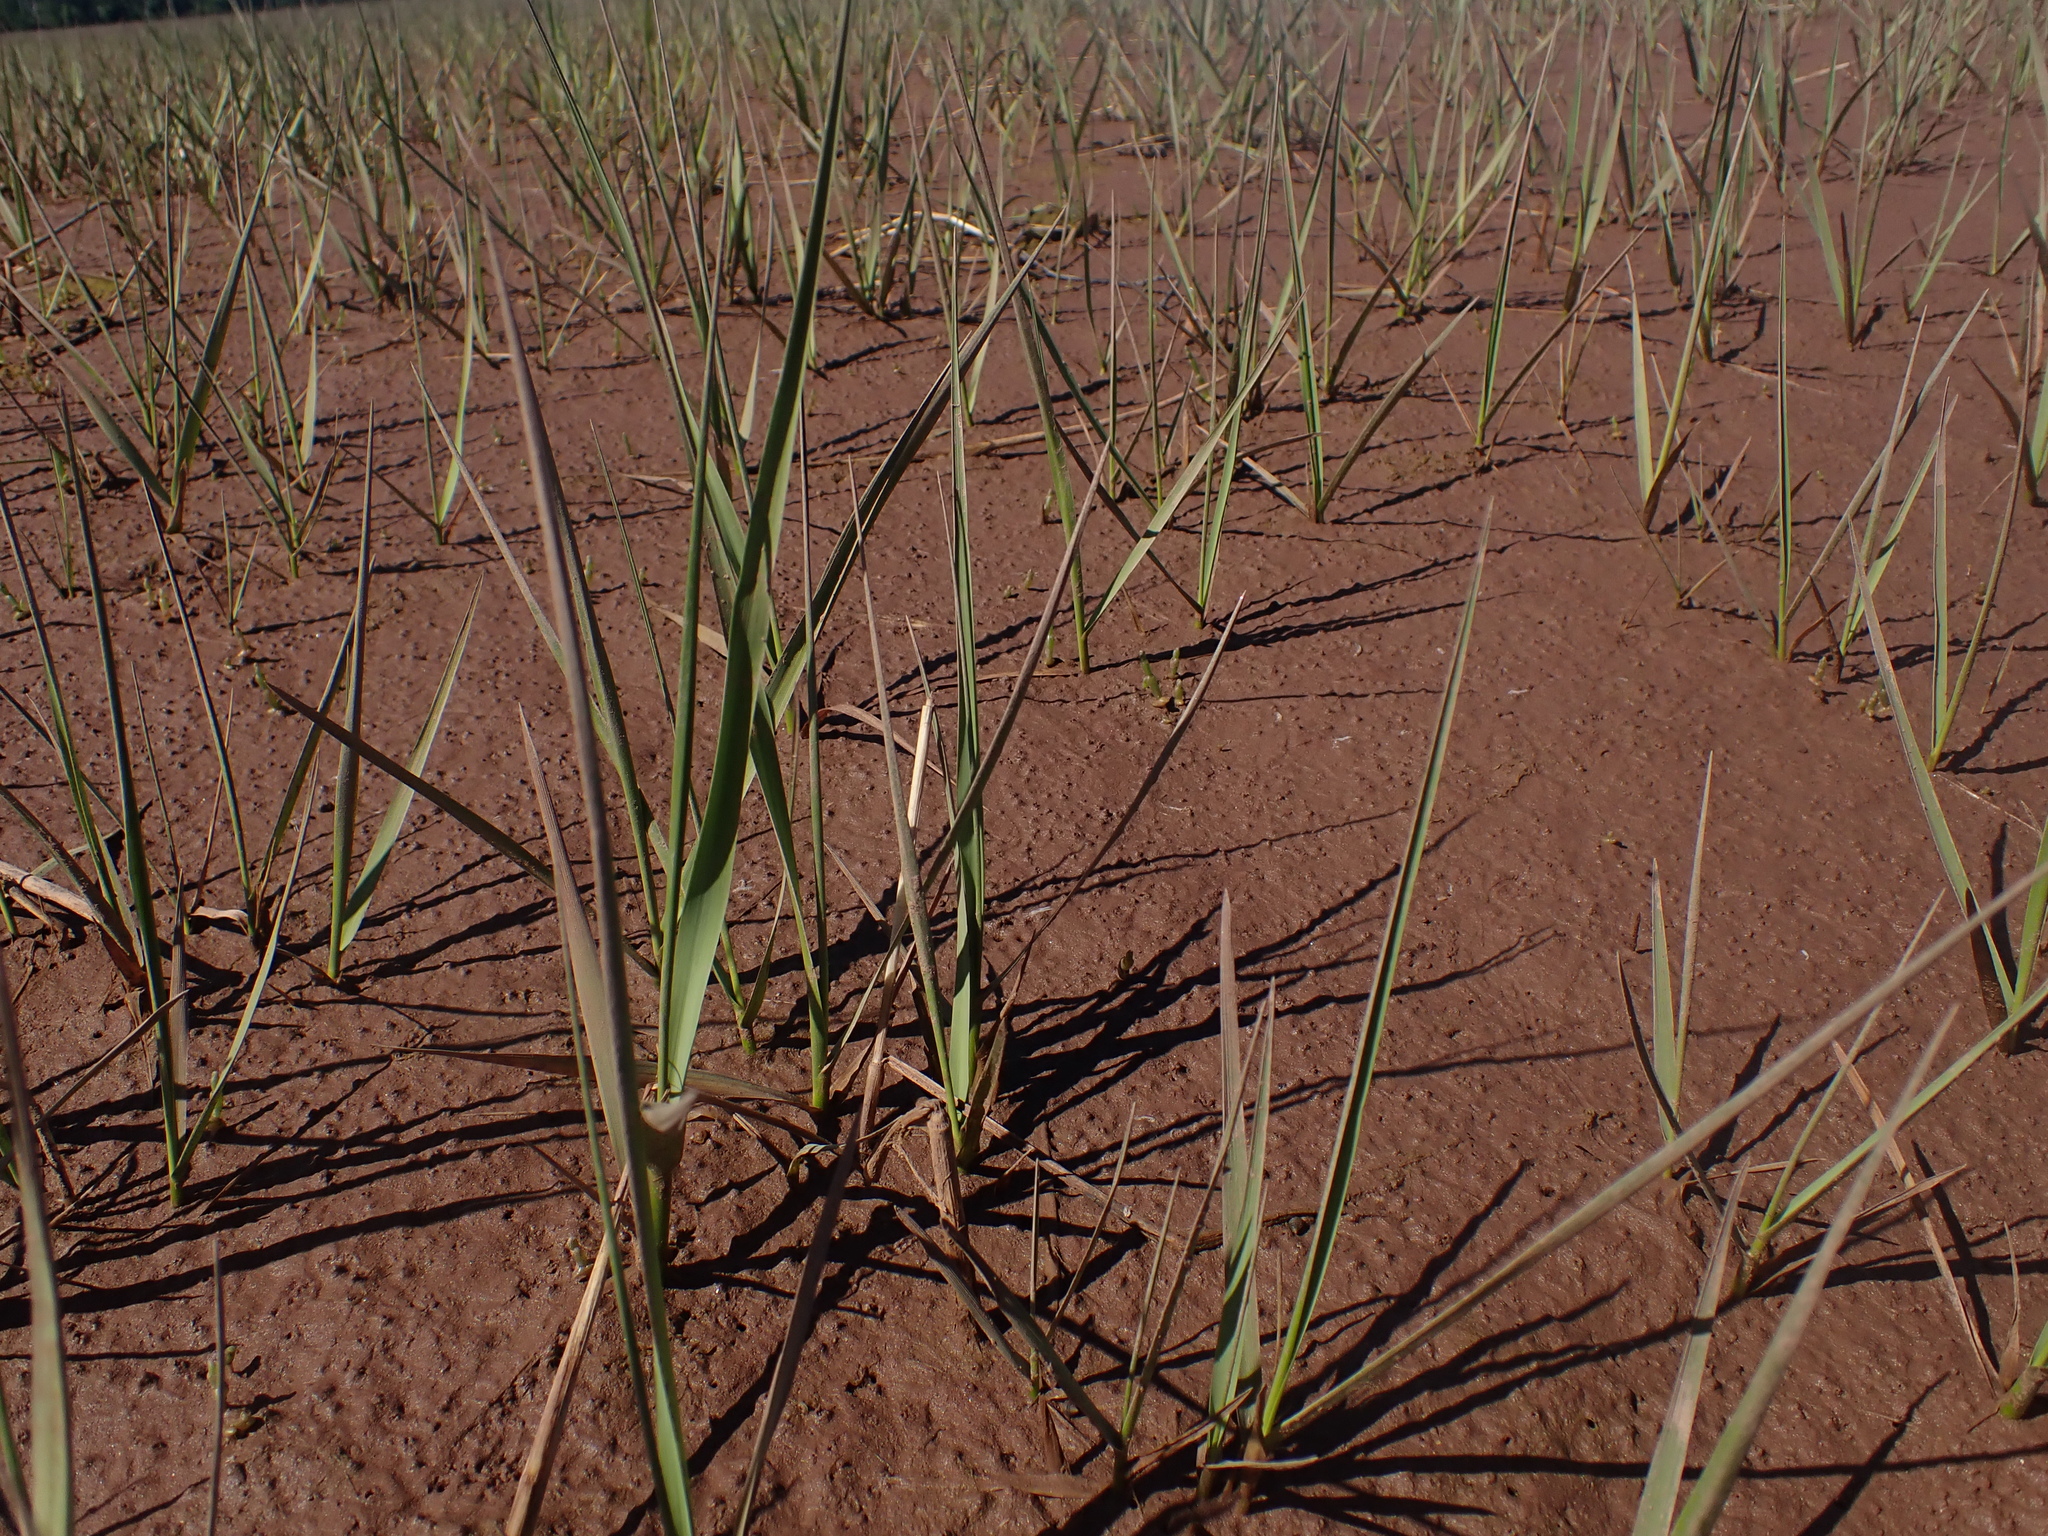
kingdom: Plantae
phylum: Tracheophyta
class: Liliopsida
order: Poales
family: Poaceae
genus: Sporobolus
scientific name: Sporobolus alterniflorus
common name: Atlantic cordgrass
